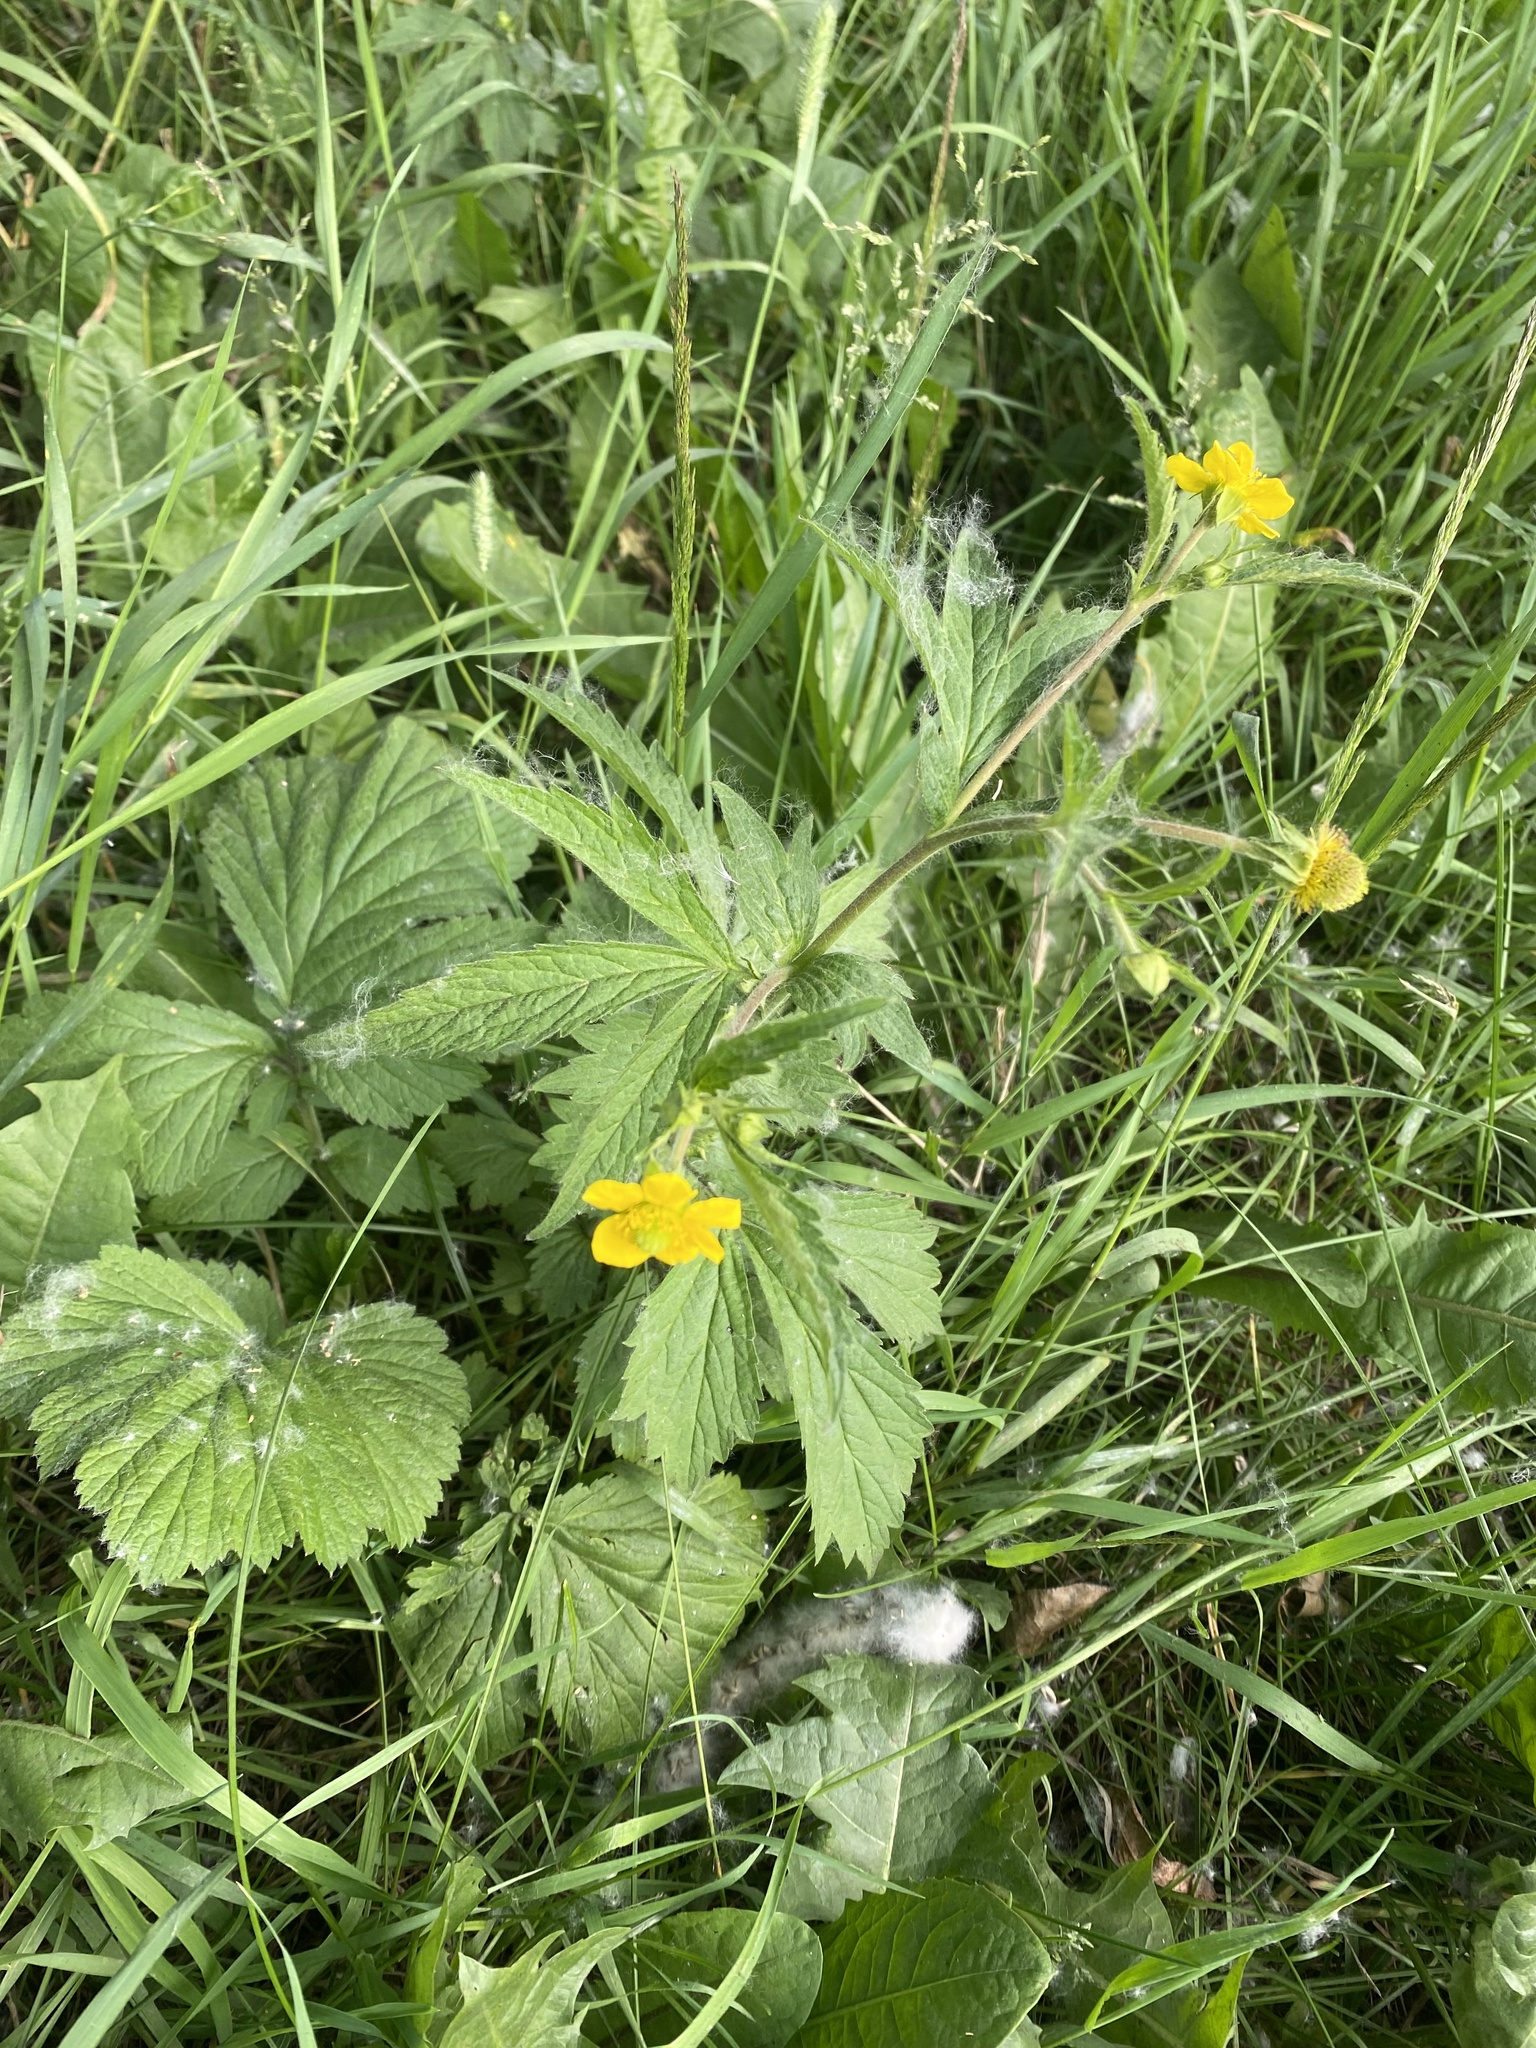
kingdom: Plantae
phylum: Tracheophyta
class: Magnoliopsida
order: Rosales
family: Rosaceae
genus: Geum
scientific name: Geum aleppicum
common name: Yellow avens
